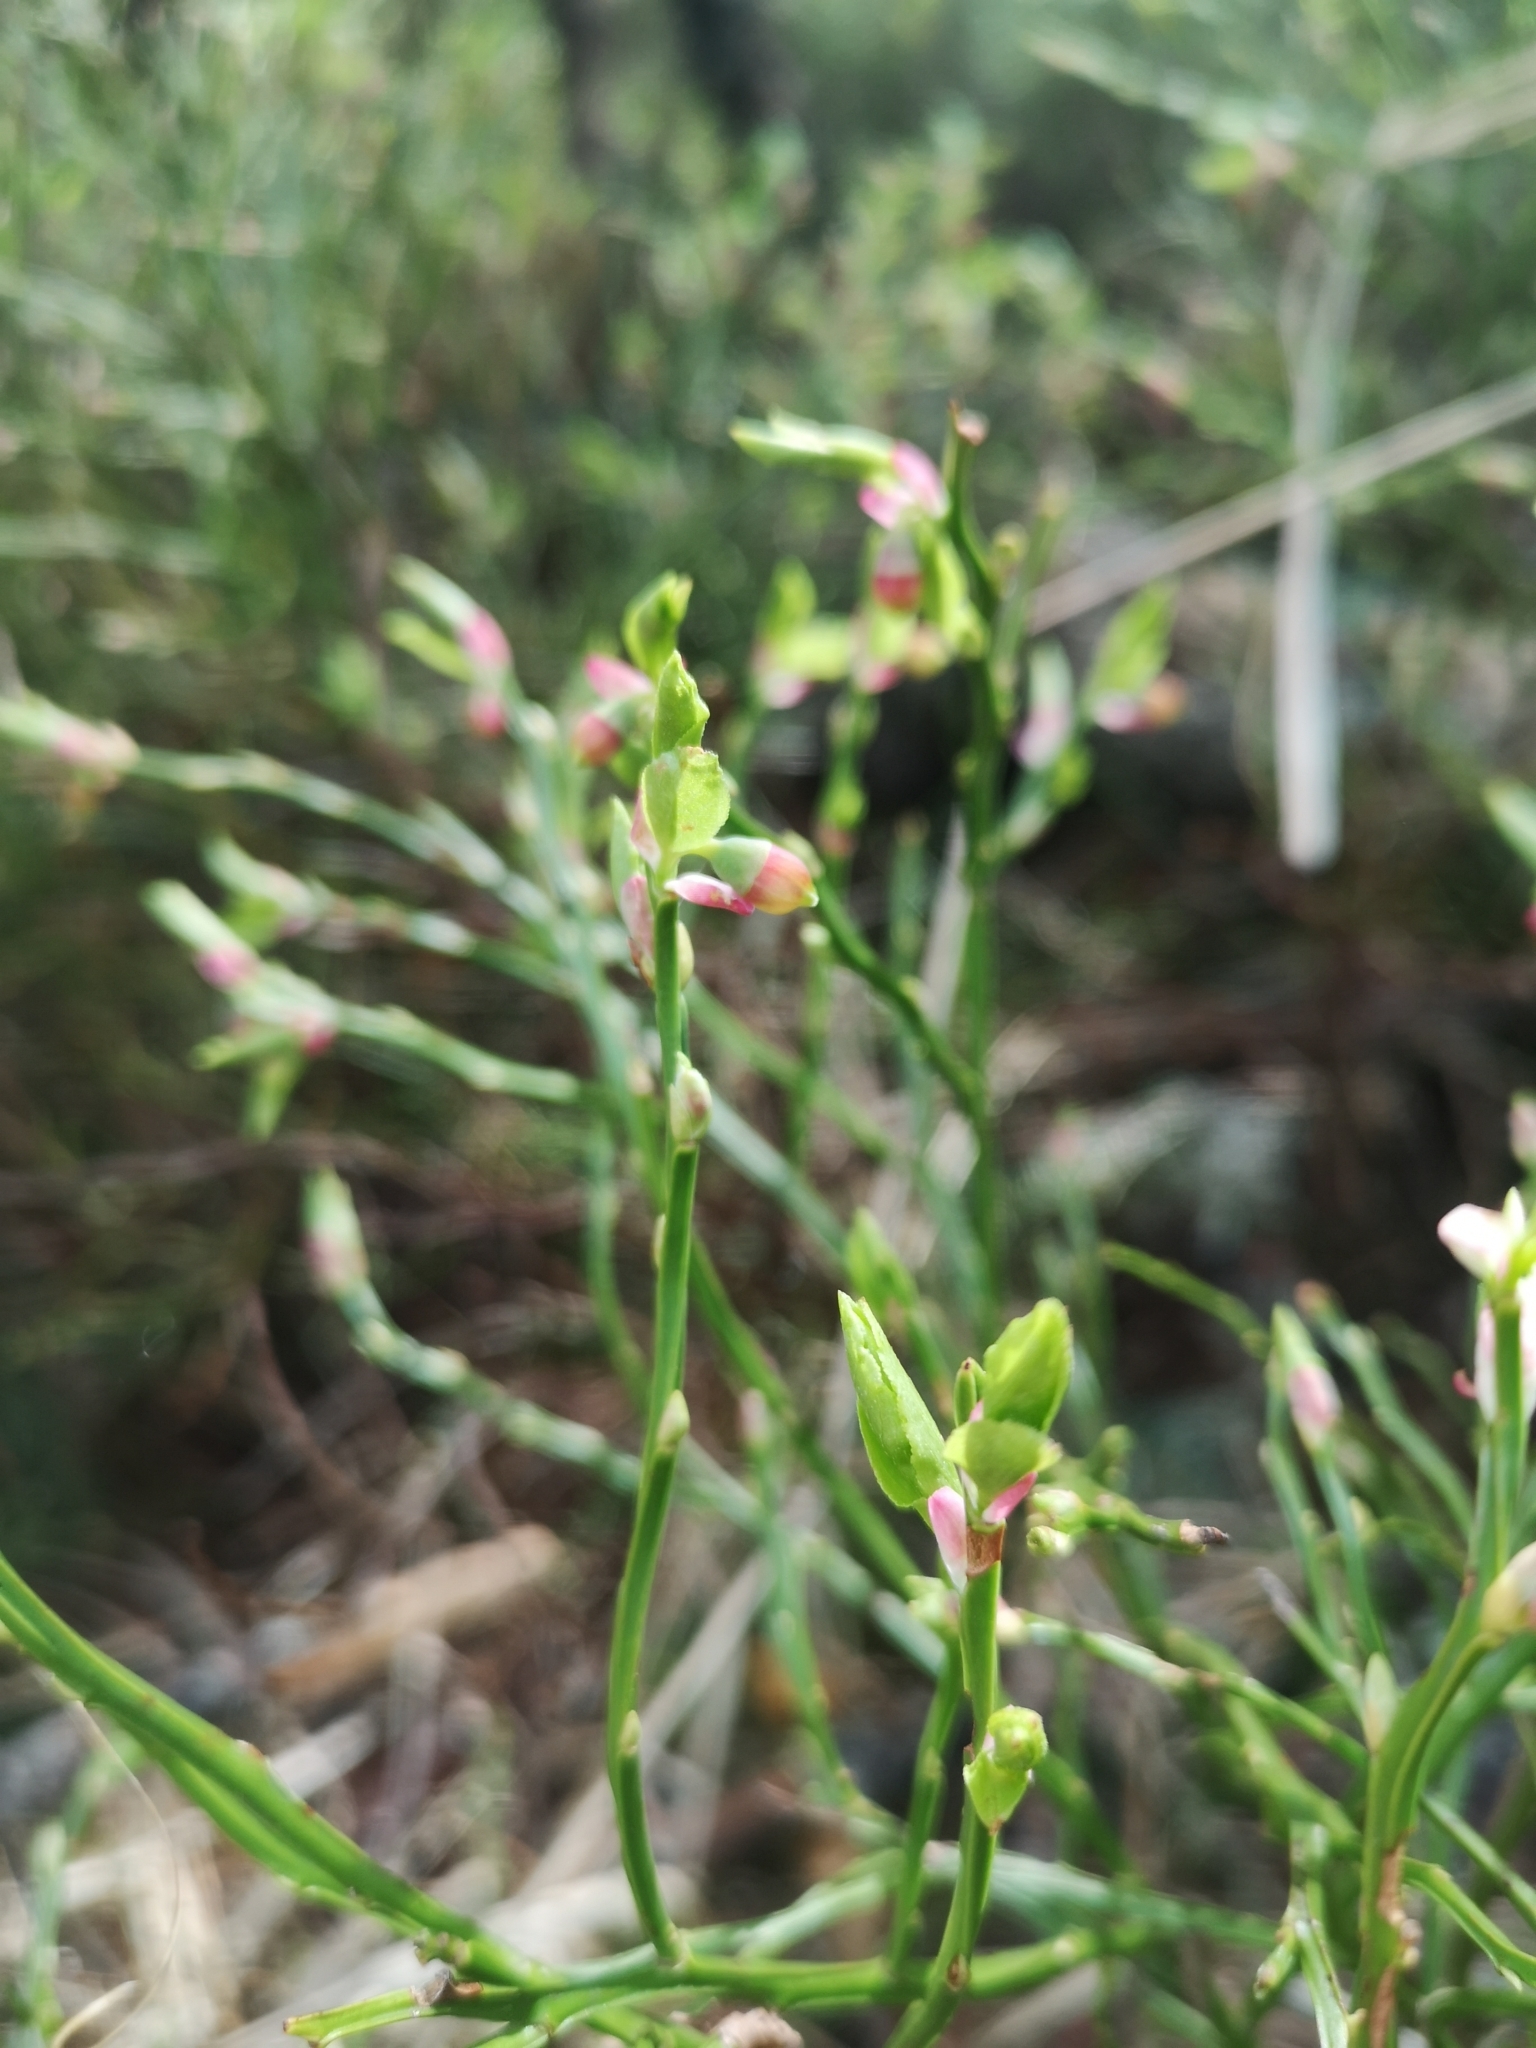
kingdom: Plantae
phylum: Tracheophyta
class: Magnoliopsida
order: Ericales
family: Ericaceae
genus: Vaccinium
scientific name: Vaccinium myrtillus
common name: Bilberry
